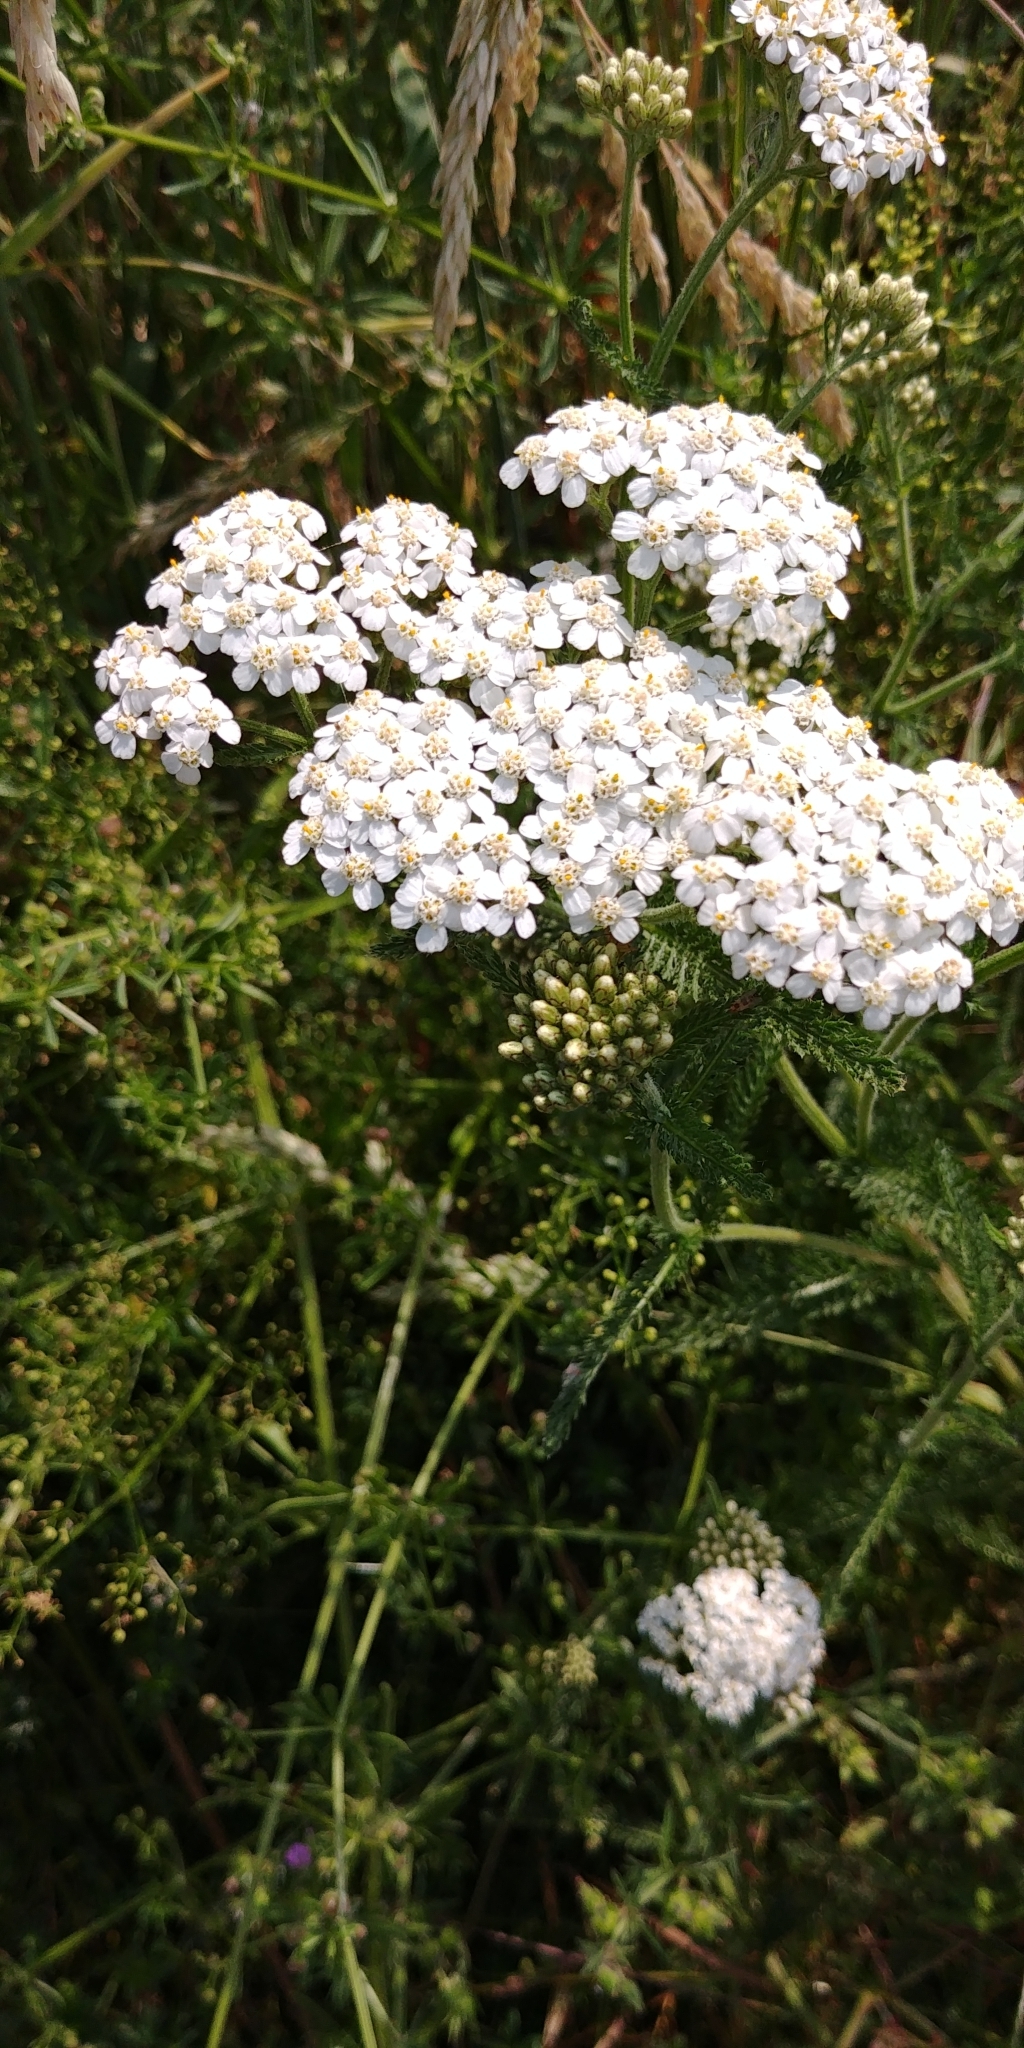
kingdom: Plantae
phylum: Tracheophyta
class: Magnoliopsida
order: Asterales
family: Asteraceae
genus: Achillea
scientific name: Achillea millefolium
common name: Yarrow
